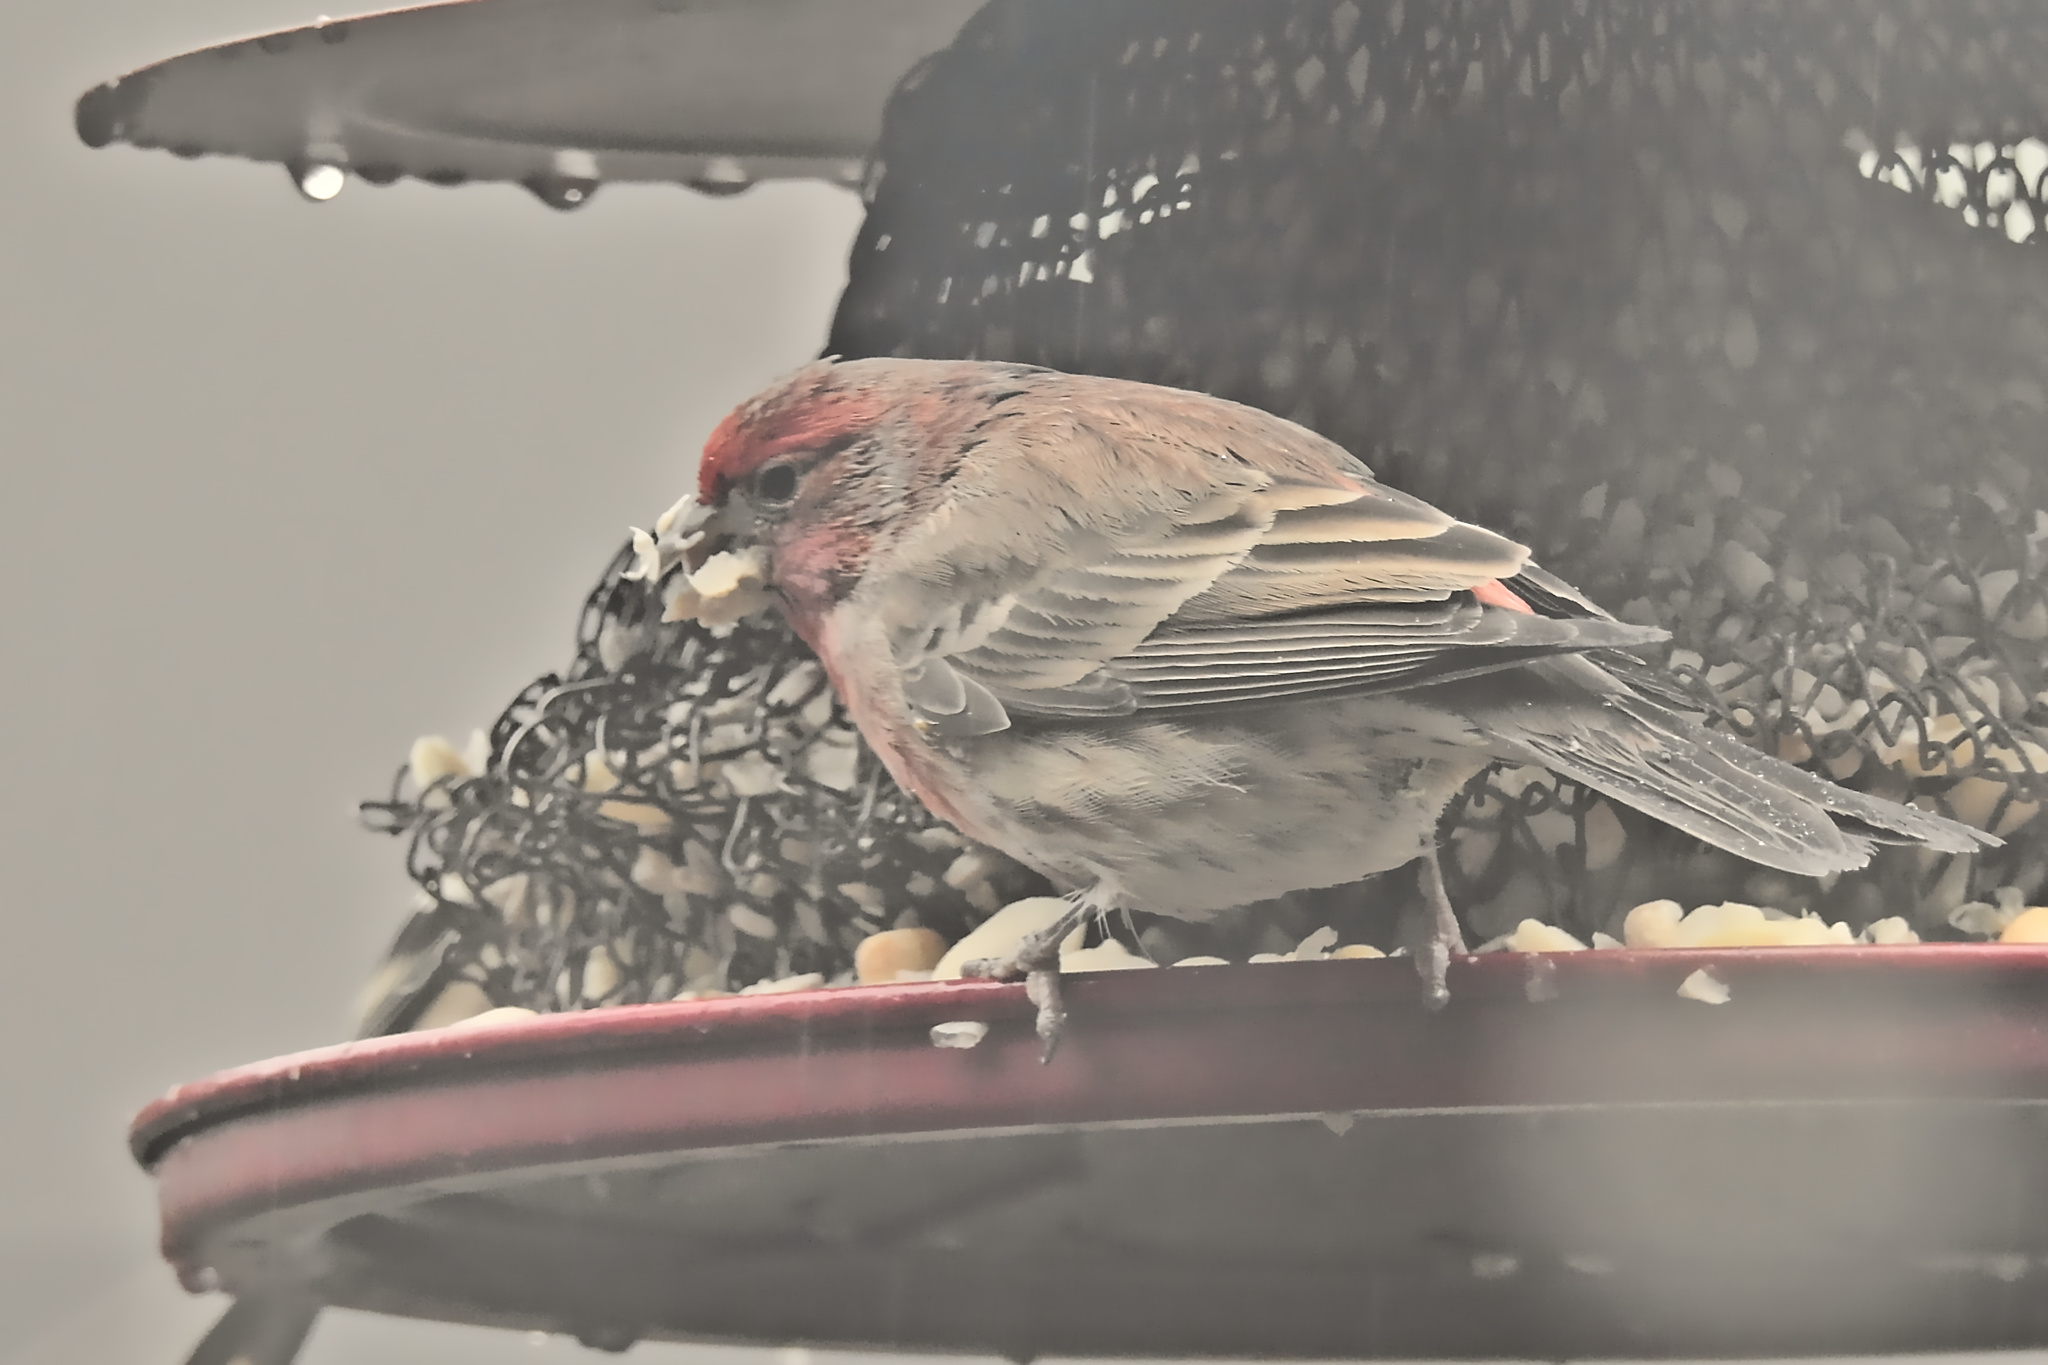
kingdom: Animalia
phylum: Chordata
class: Aves
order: Passeriformes
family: Fringillidae
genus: Haemorhous
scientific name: Haemorhous mexicanus
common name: House finch
